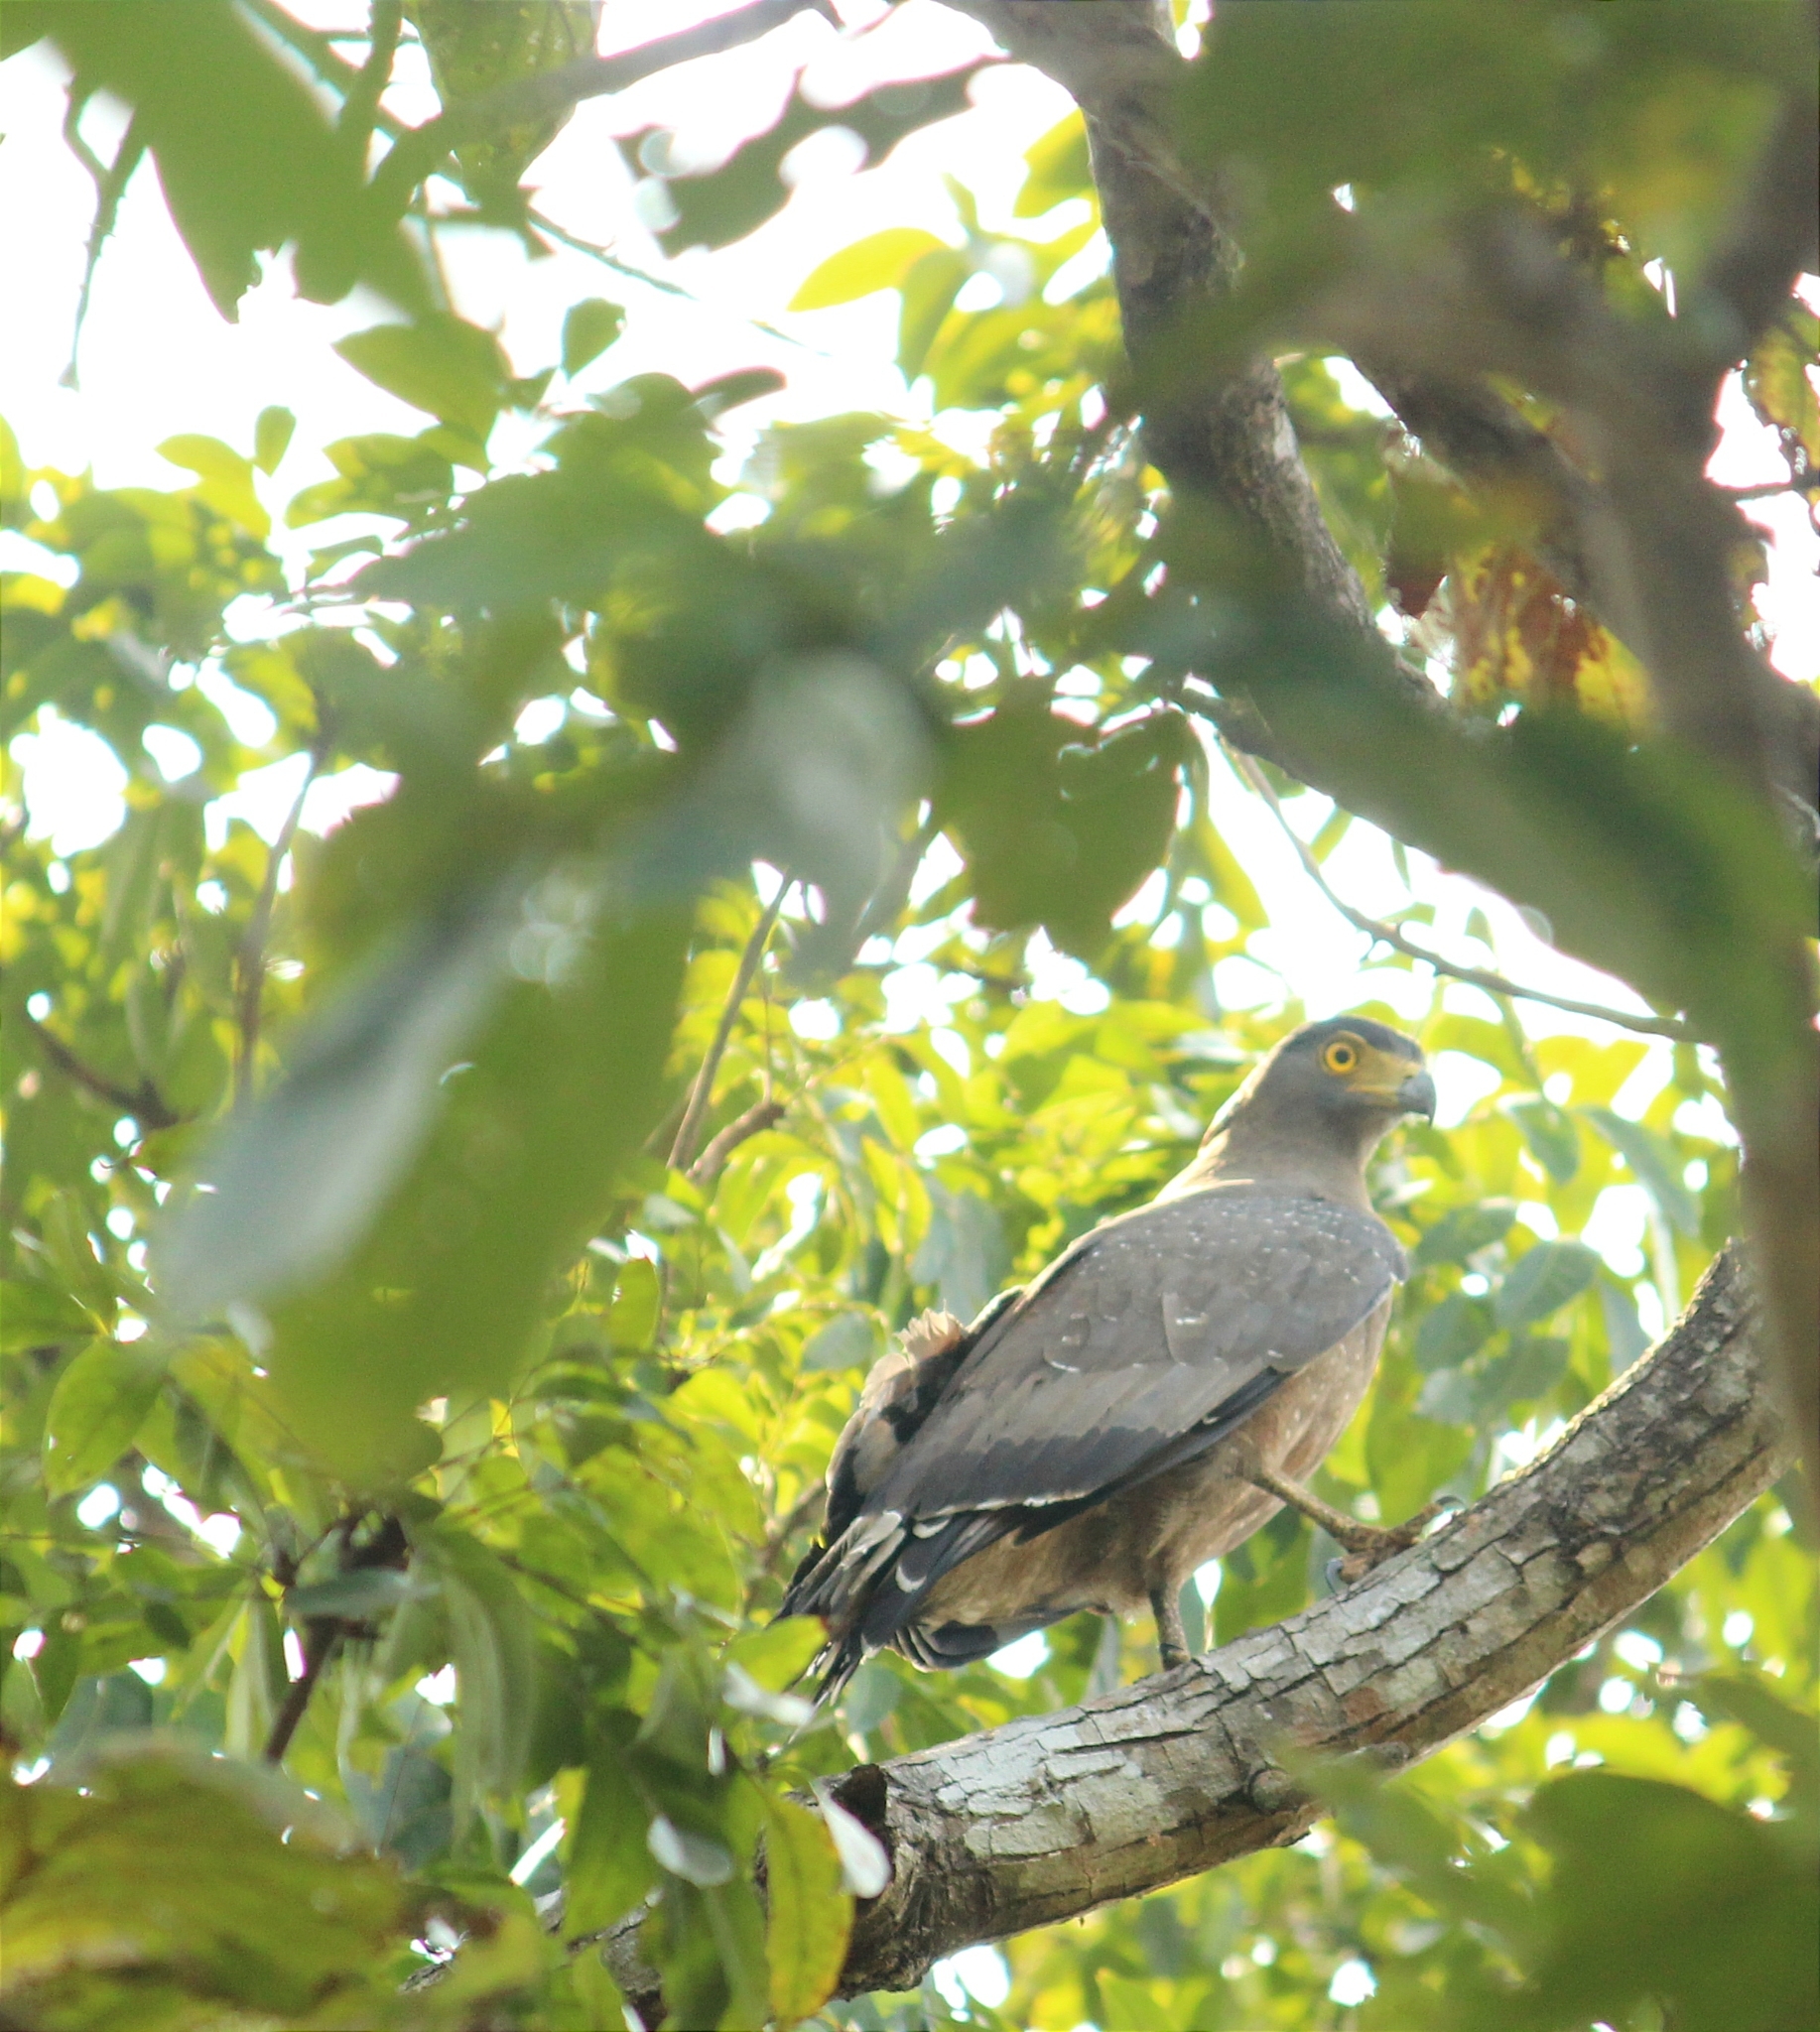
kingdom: Animalia
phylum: Chordata
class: Aves
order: Accipitriformes
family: Accipitridae
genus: Spilornis
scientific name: Spilornis cheela
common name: Crested serpent eagle
